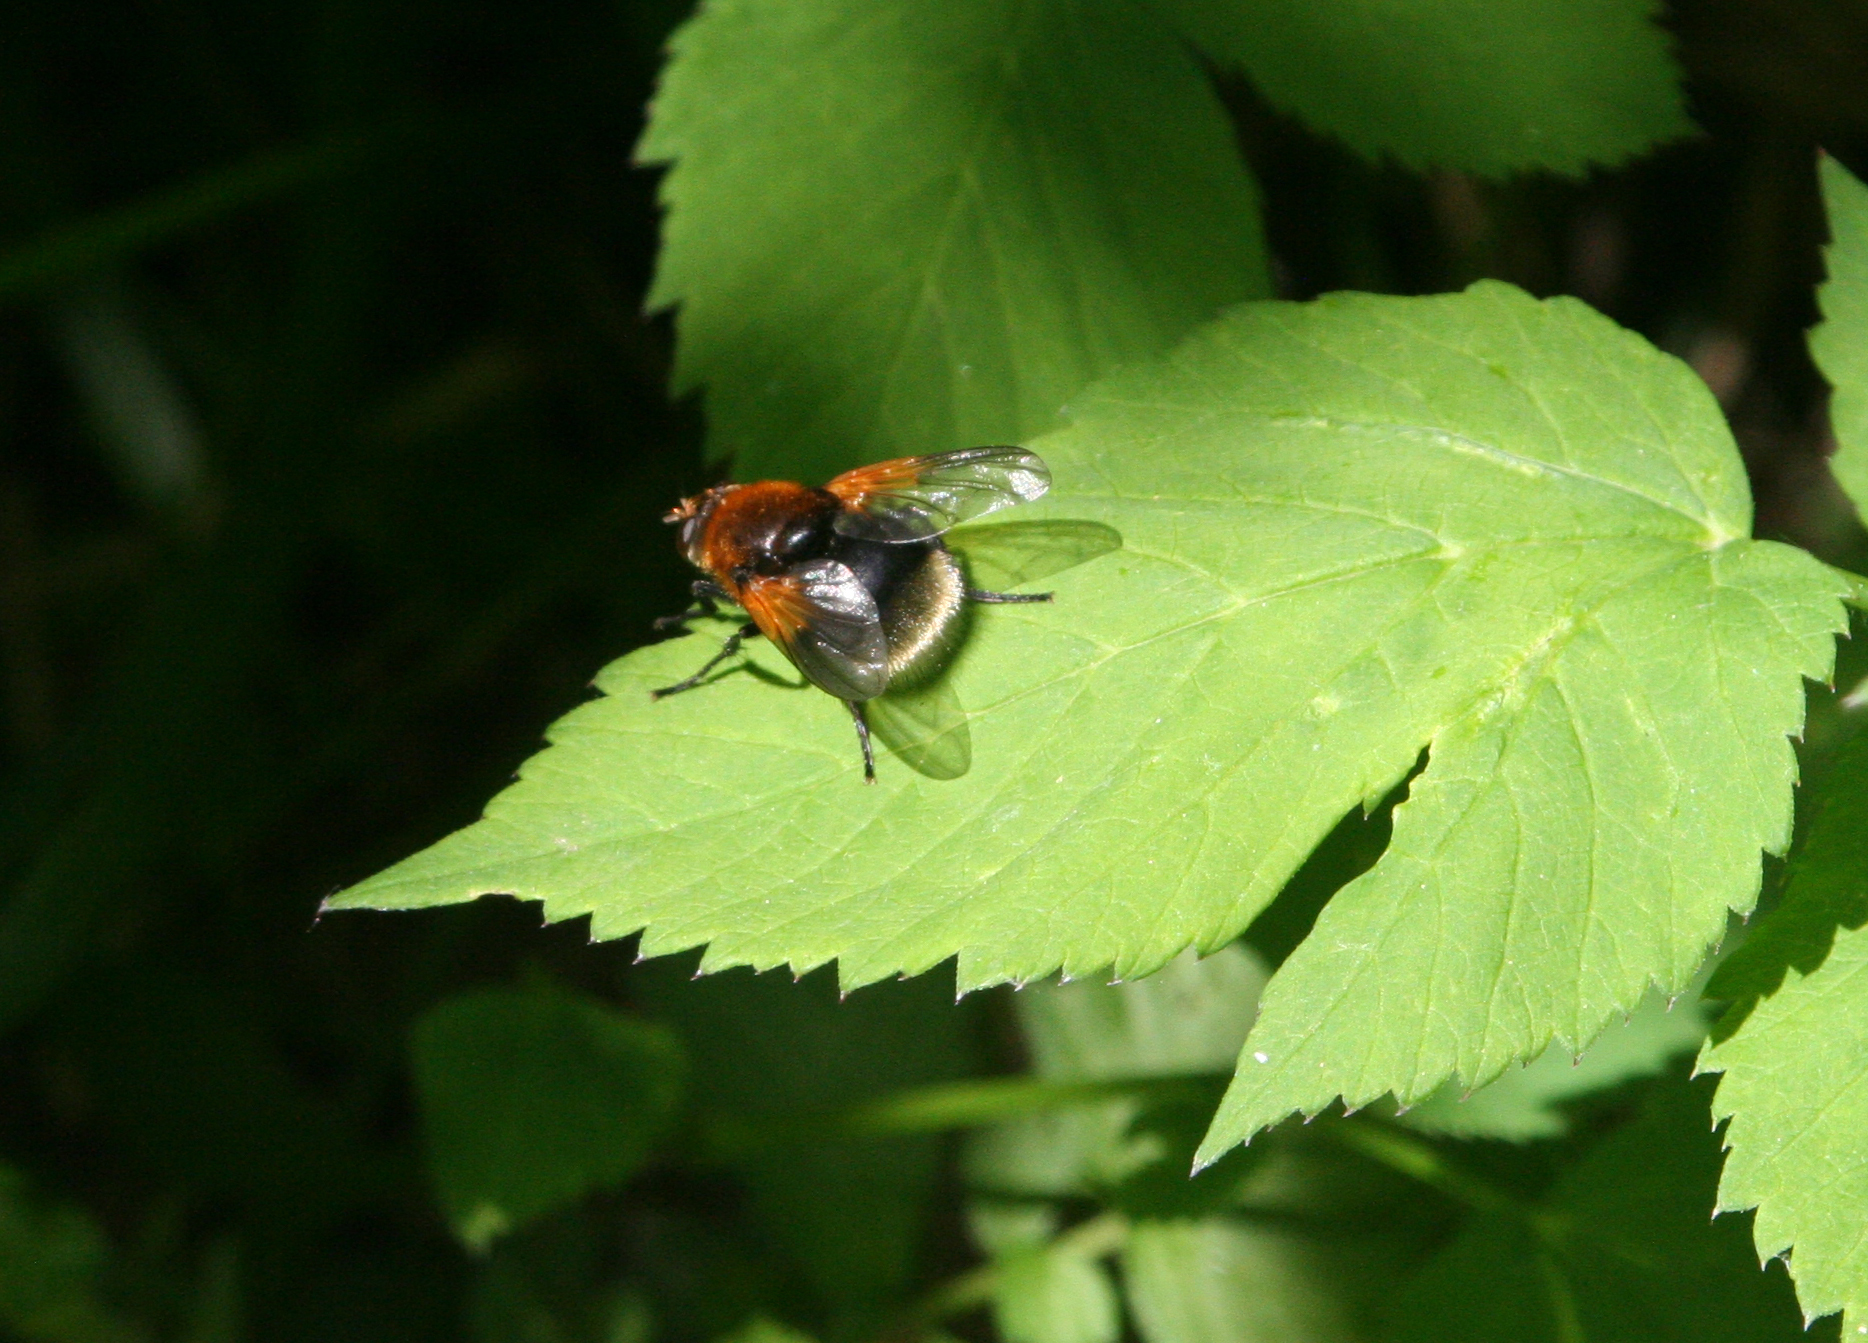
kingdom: Animalia
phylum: Arthropoda
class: Insecta
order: Diptera
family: Muscidae
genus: Mesembrina
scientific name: Mesembrina mystacea
